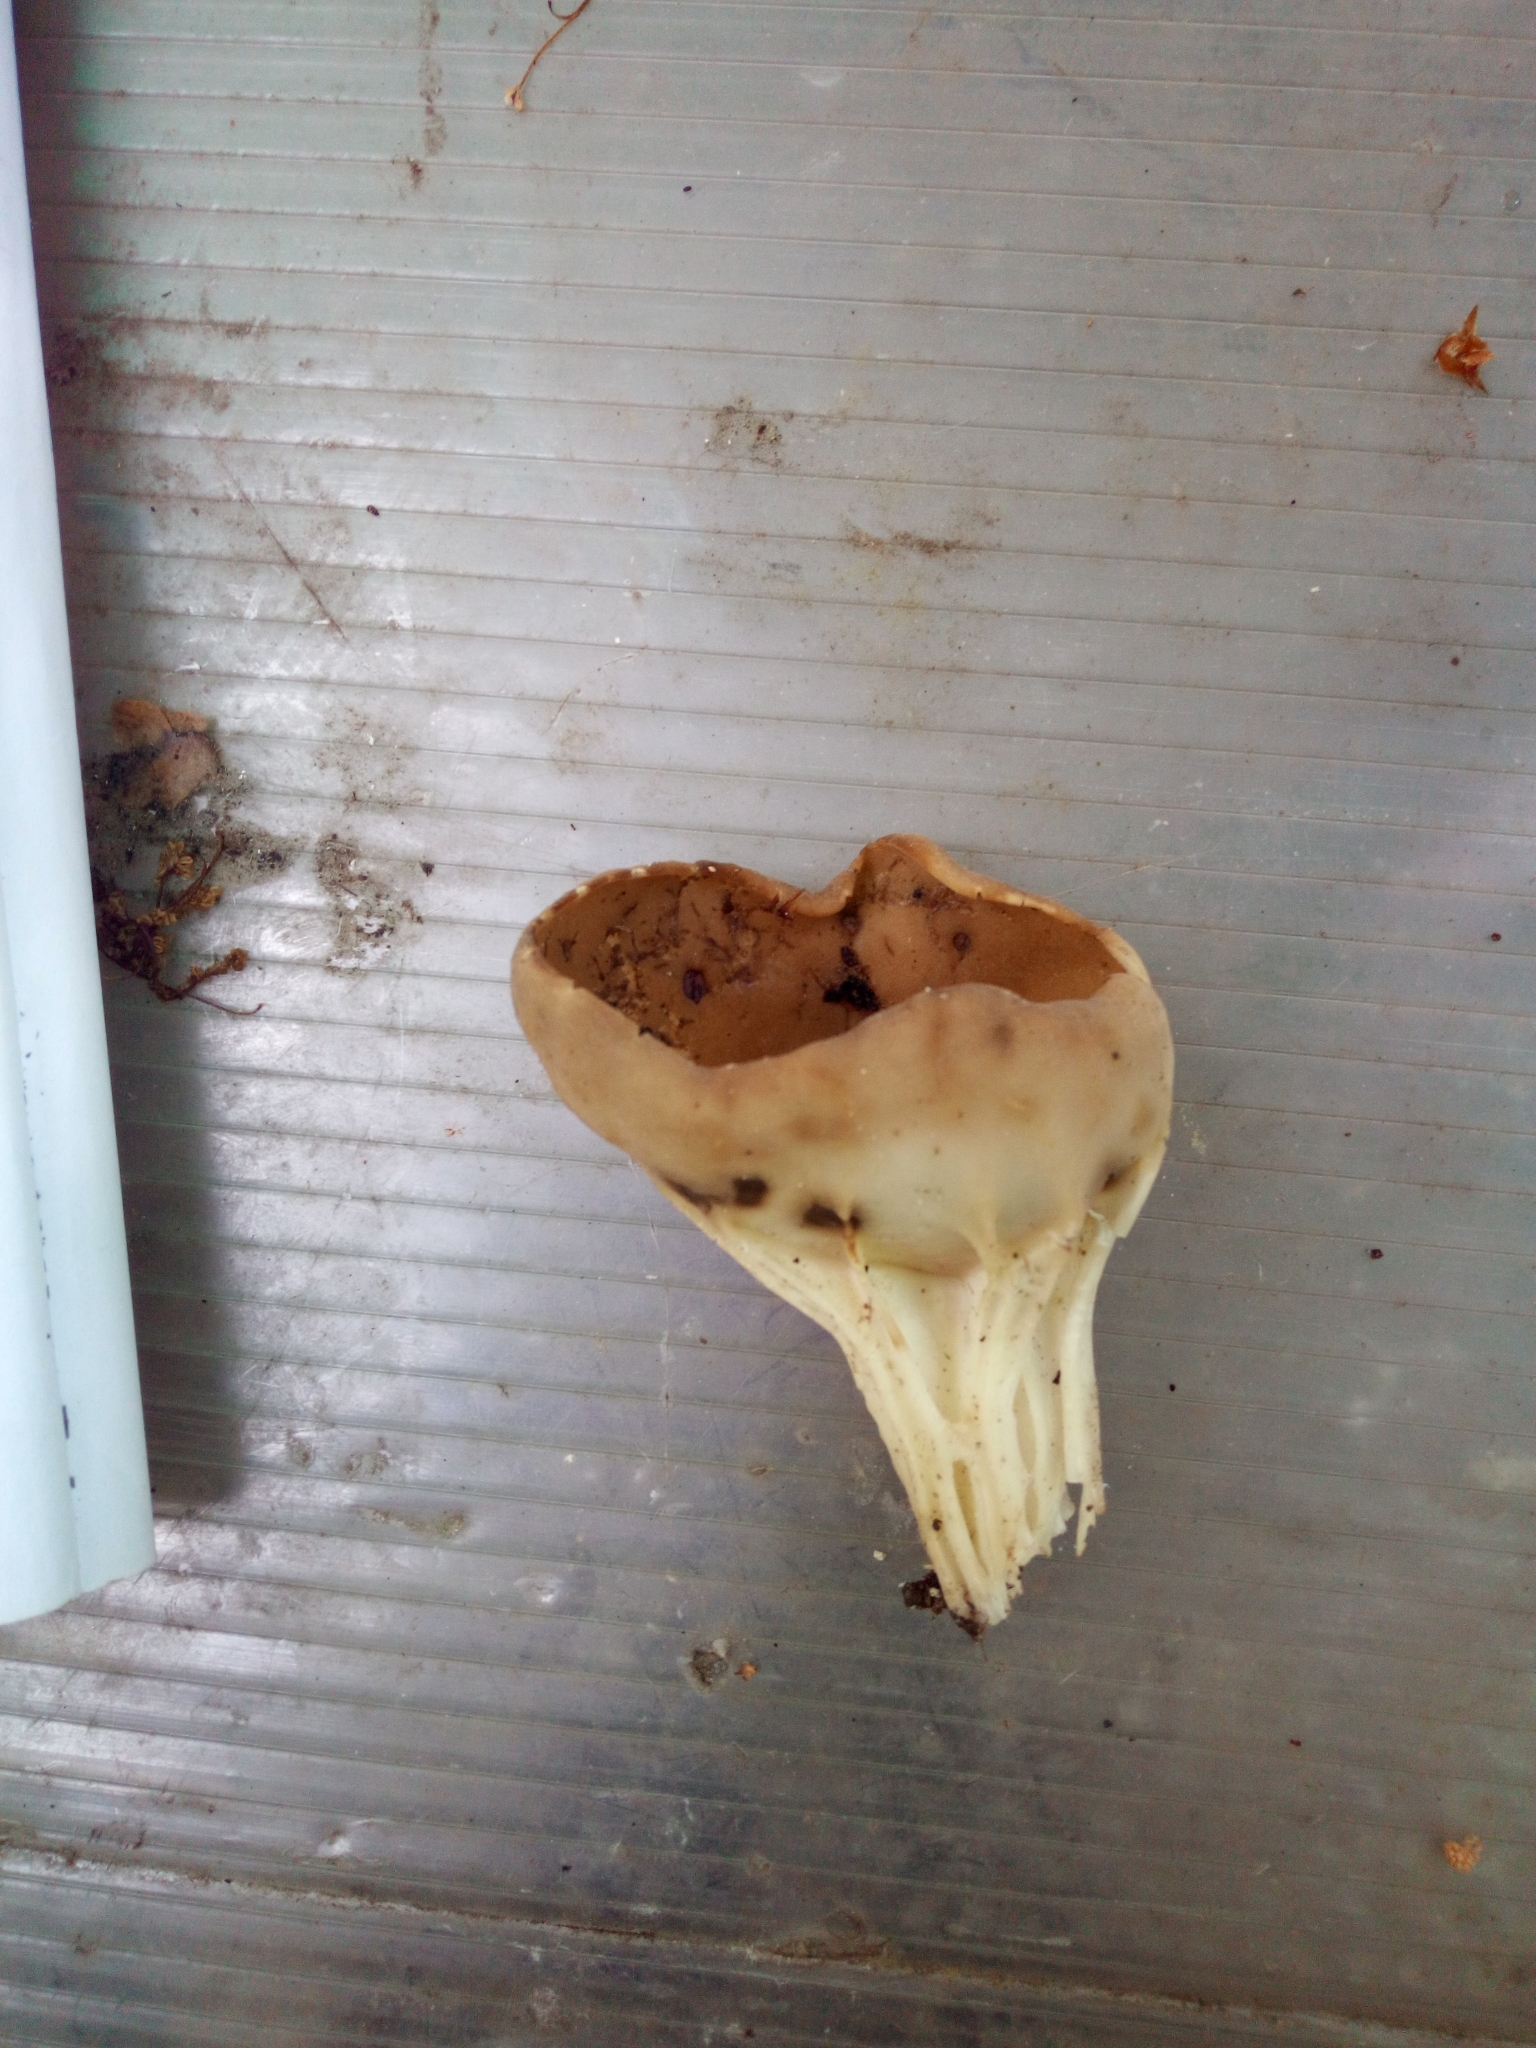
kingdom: Fungi
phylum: Ascomycota
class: Pezizomycetes
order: Pezizales
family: Helvellaceae
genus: Helvella
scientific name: Helvella acetabulum
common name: Vinegar cup
